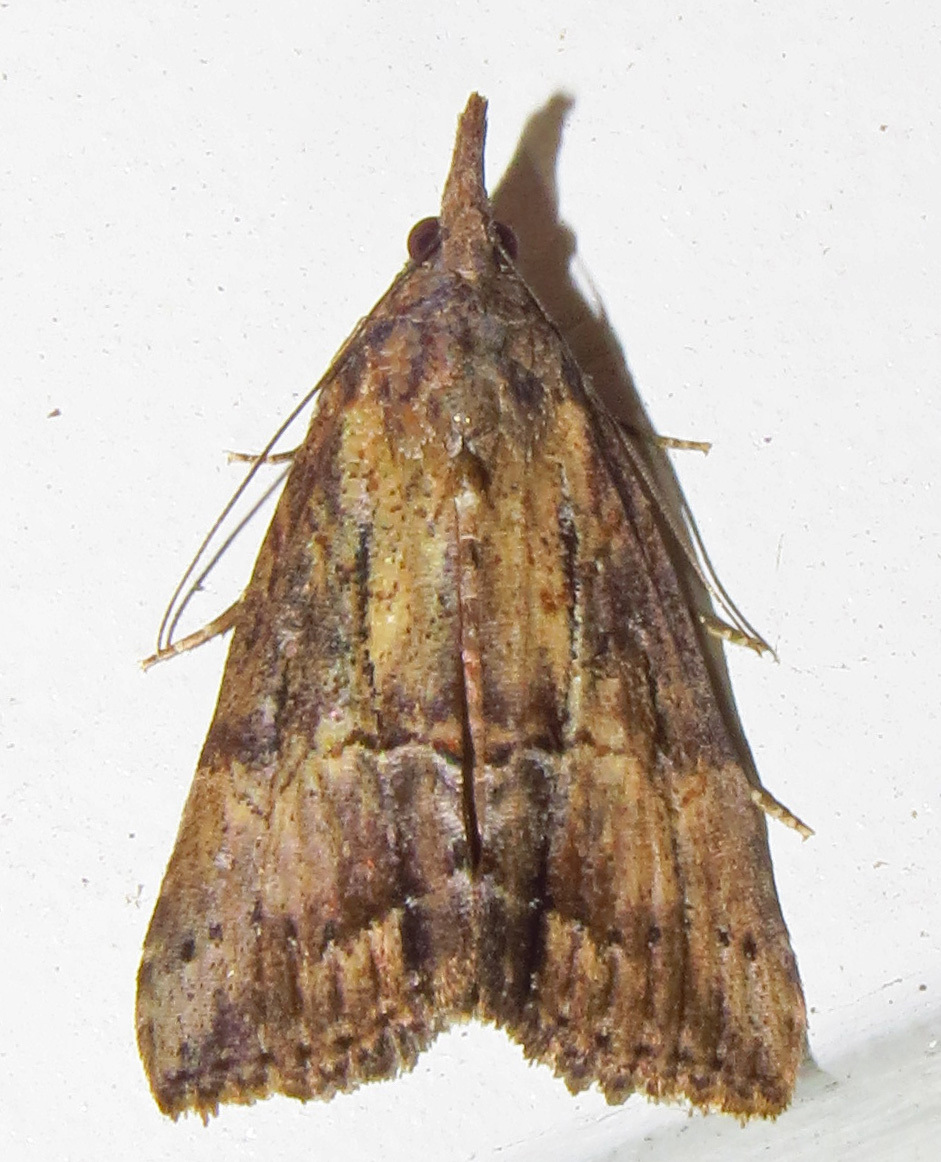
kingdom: Animalia
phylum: Arthropoda
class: Insecta
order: Lepidoptera
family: Erebidae
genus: Hypena
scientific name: Hypena scabra
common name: Green cloverworm
